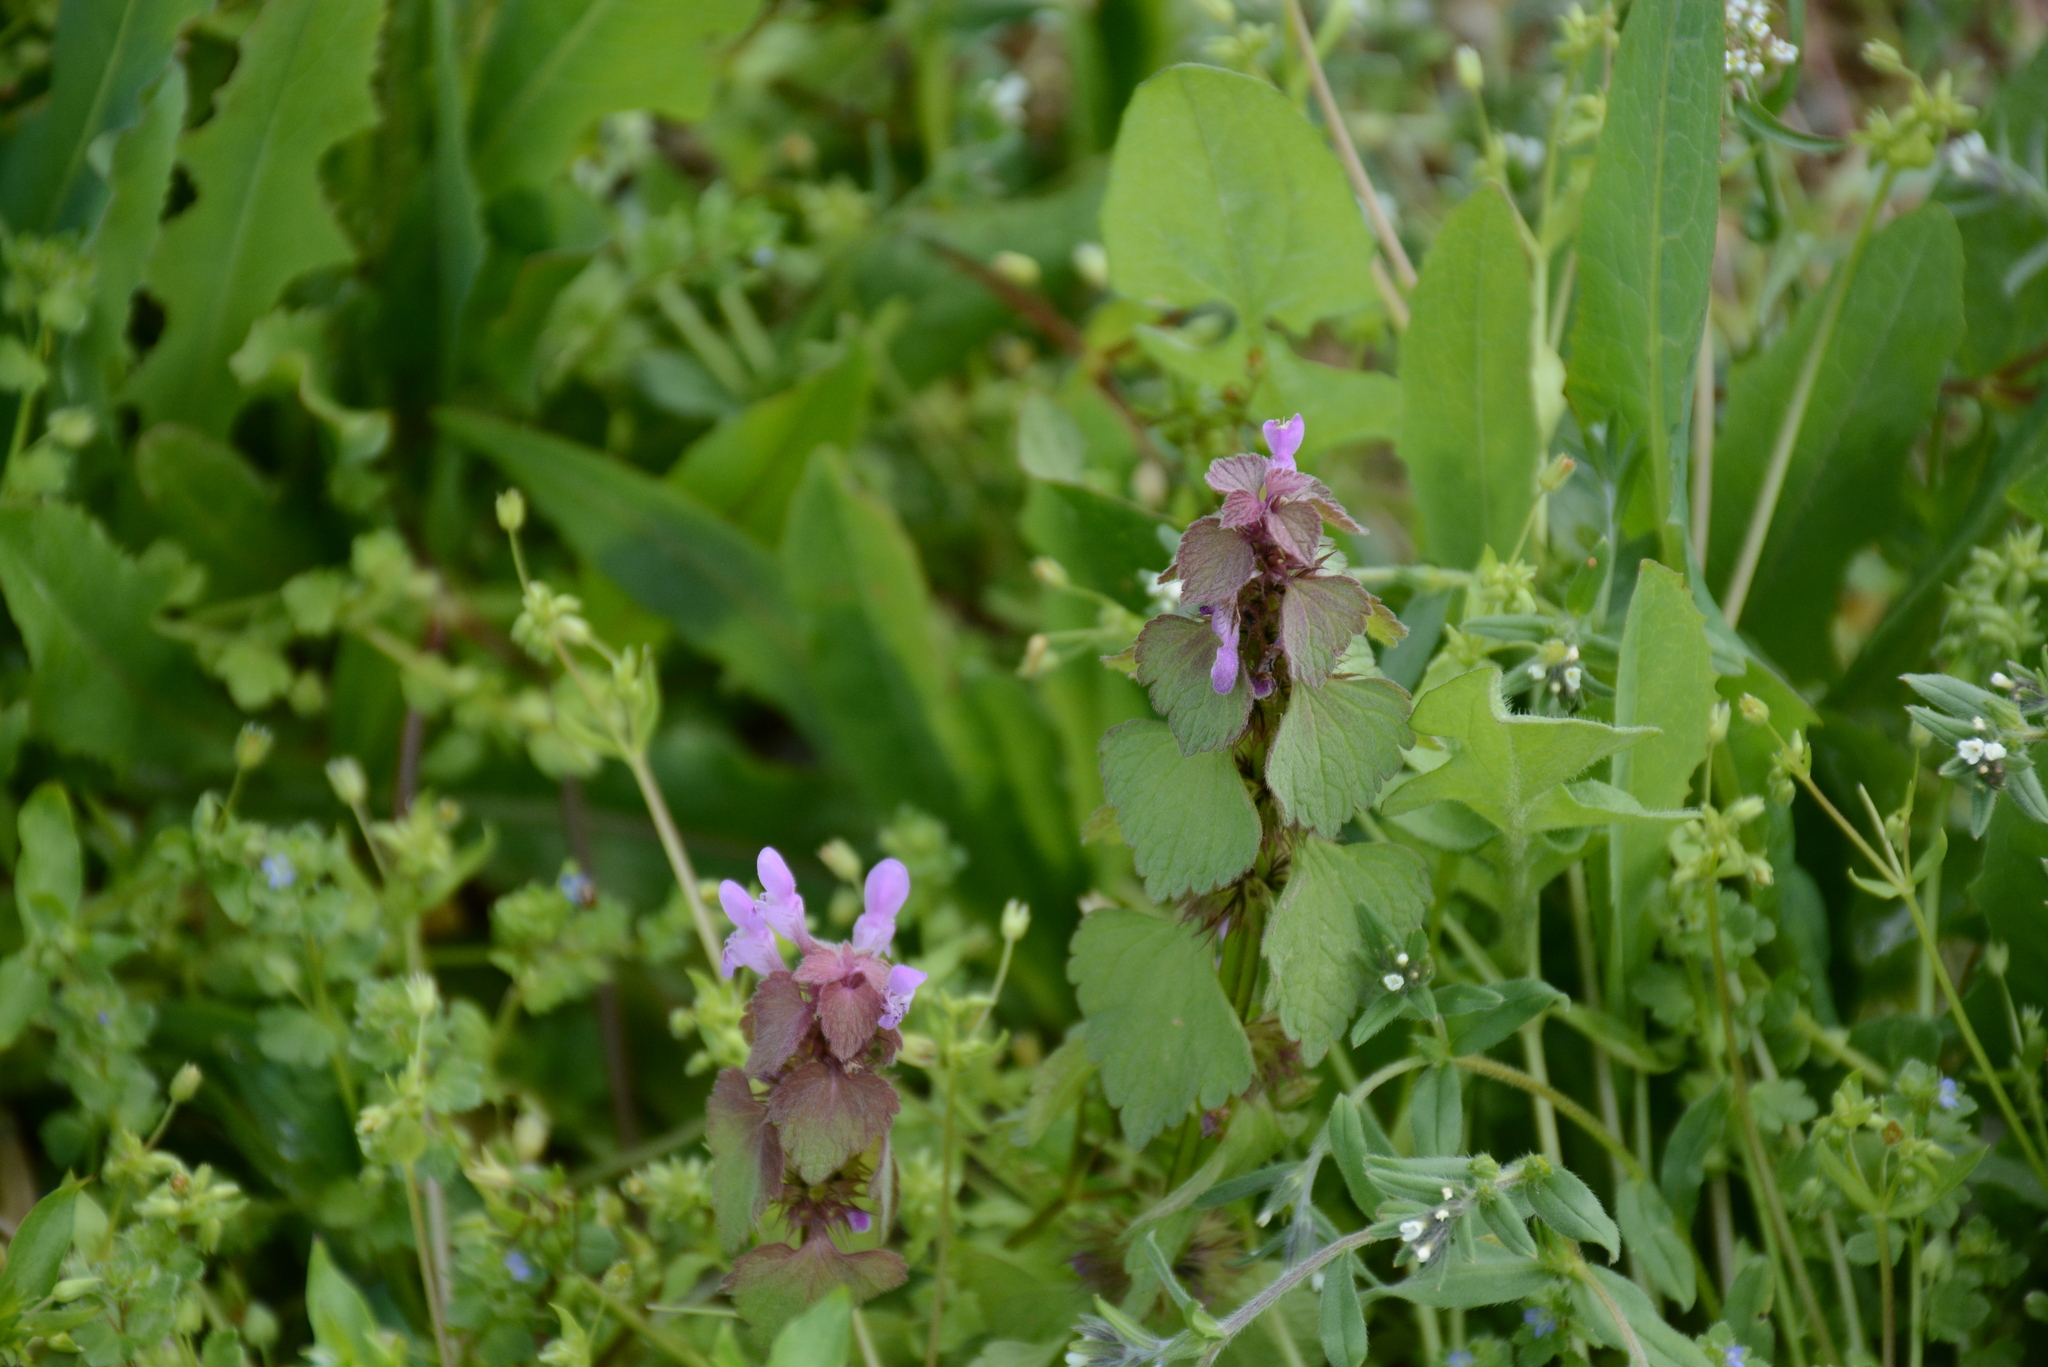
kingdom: Plantae
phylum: Tracheophyta
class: Magnoliopsida
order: Lamiales
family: Lamiaceae
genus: Lamium
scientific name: Lamium purpureum
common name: Red dead-nettle
